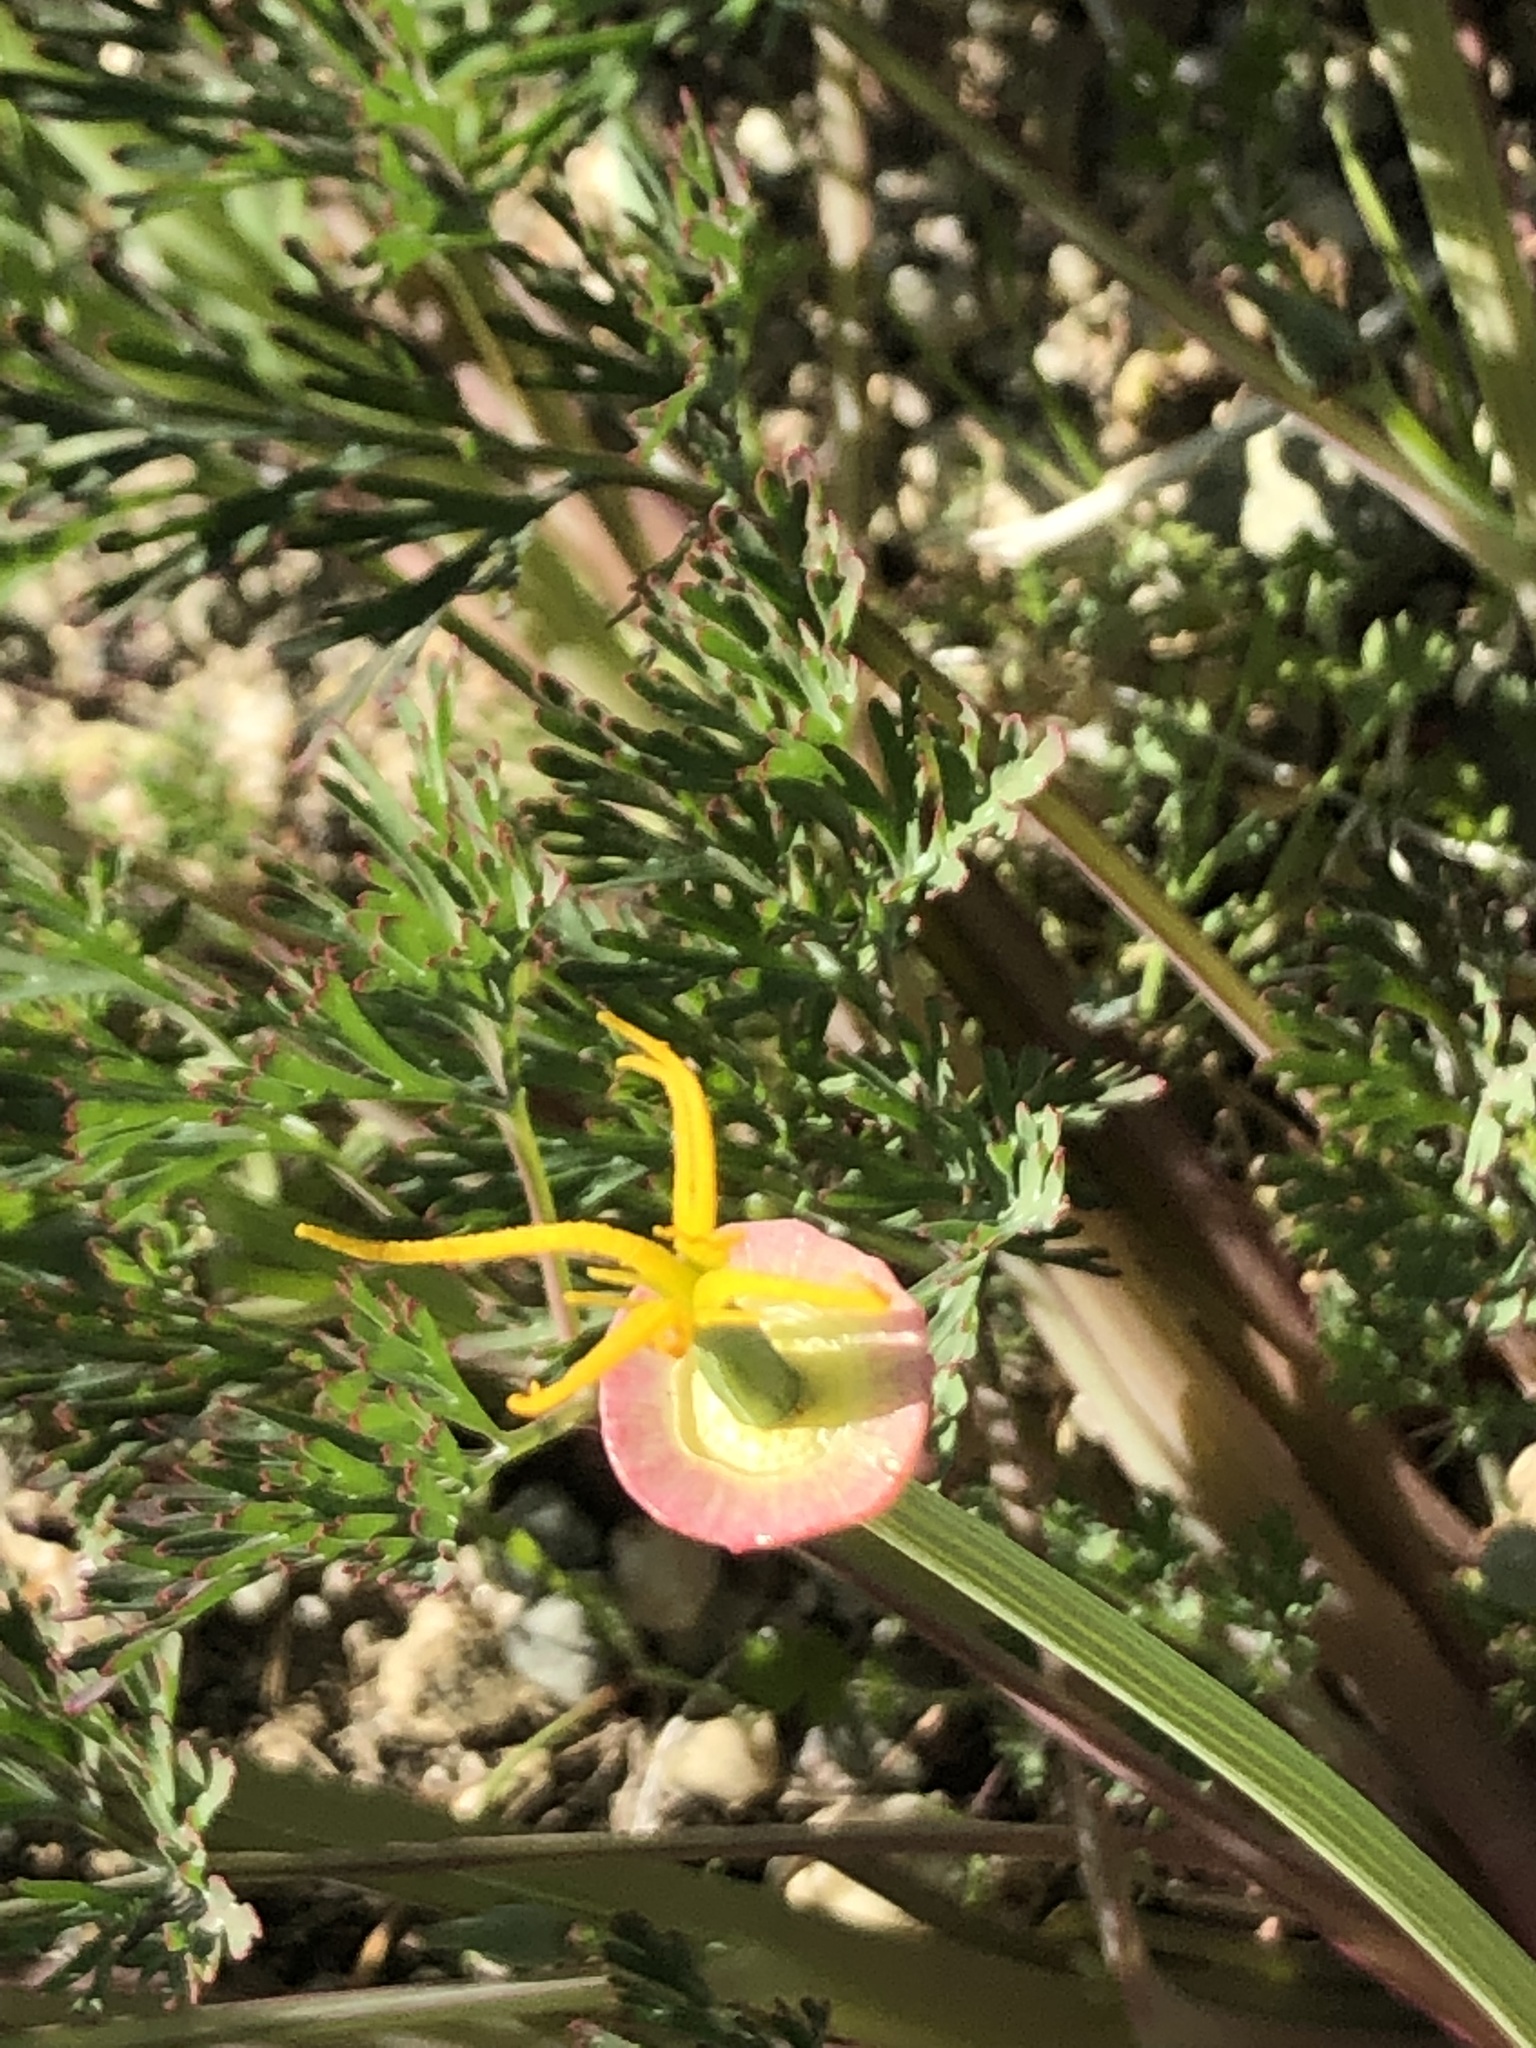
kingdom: Plantae
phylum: Tracheophyta
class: Magnoliopsida
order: Ranunculales
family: Papaveraceae
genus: Eschscholzia
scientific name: Eschscholzia californica
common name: California poppy
